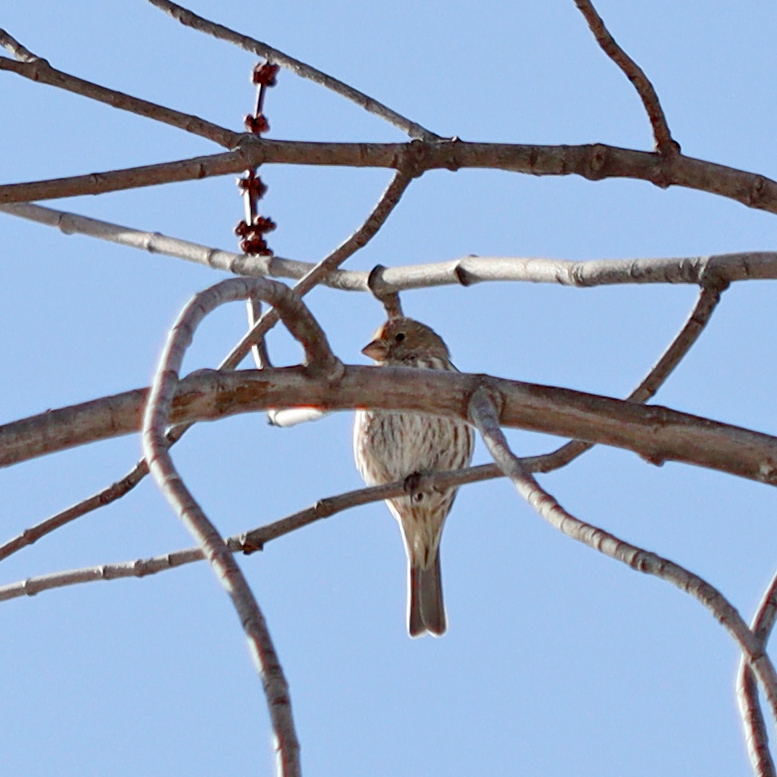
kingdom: Animalia
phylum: Chordata
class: Aves
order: Passeriformes
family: Fringillidae
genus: Haemorhous
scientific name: Haemorhous mexicanus
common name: House finch
